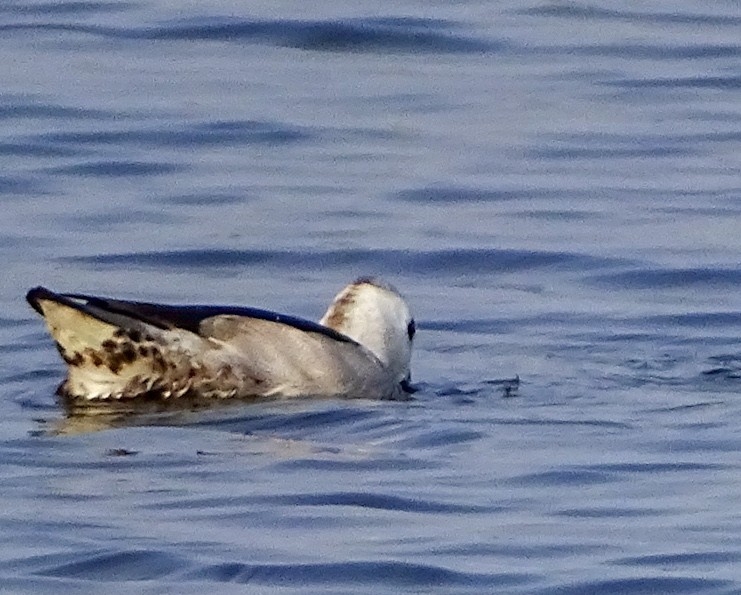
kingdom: Animalia
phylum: Chordata
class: Aves
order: Anseriformes
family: Anatidae
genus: Nettapus
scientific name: Nettapus coromandelianus
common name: Cotton pygmy-goose
